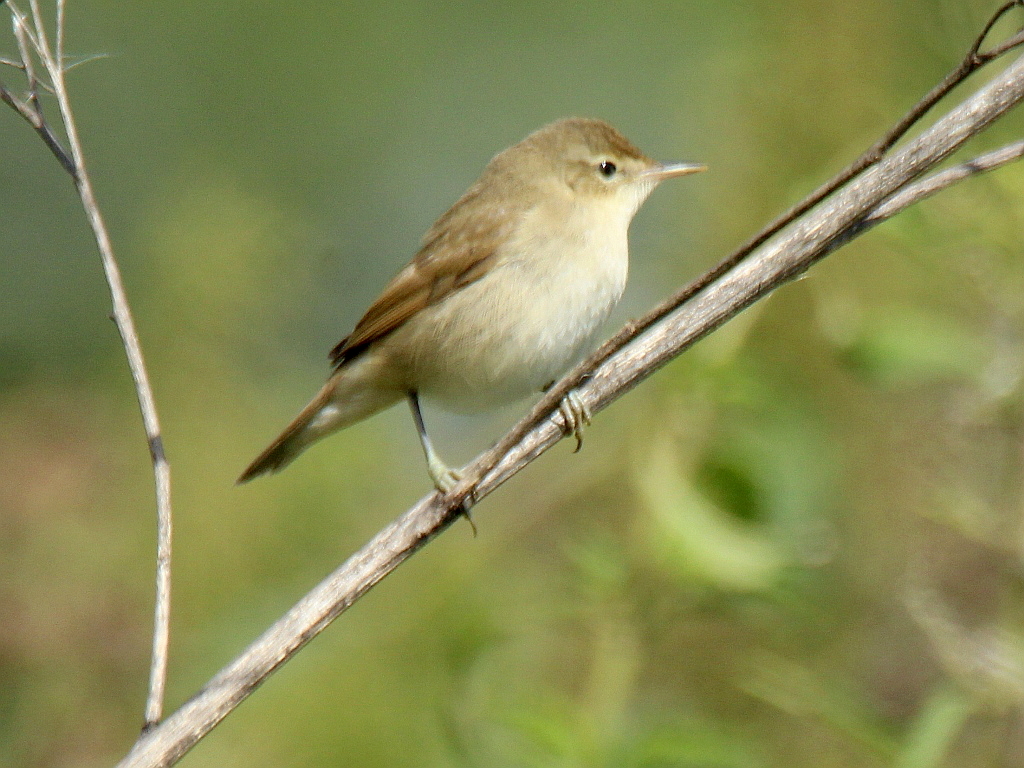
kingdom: Animalia
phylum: Chordata
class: Aves
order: Passeriformes
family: Acrocephalidae
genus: Acrocephalus
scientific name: Acrocephalus dumetorum
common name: Blyth's reed warbler
